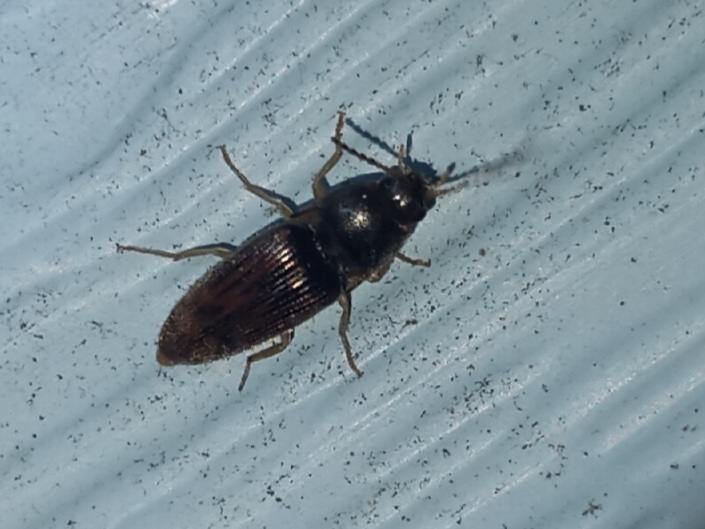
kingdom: Animalia
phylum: Arthropoda
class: Insecta
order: Coleoptera
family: Elateridae
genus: Monocrepidius
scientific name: Monocrepidius
